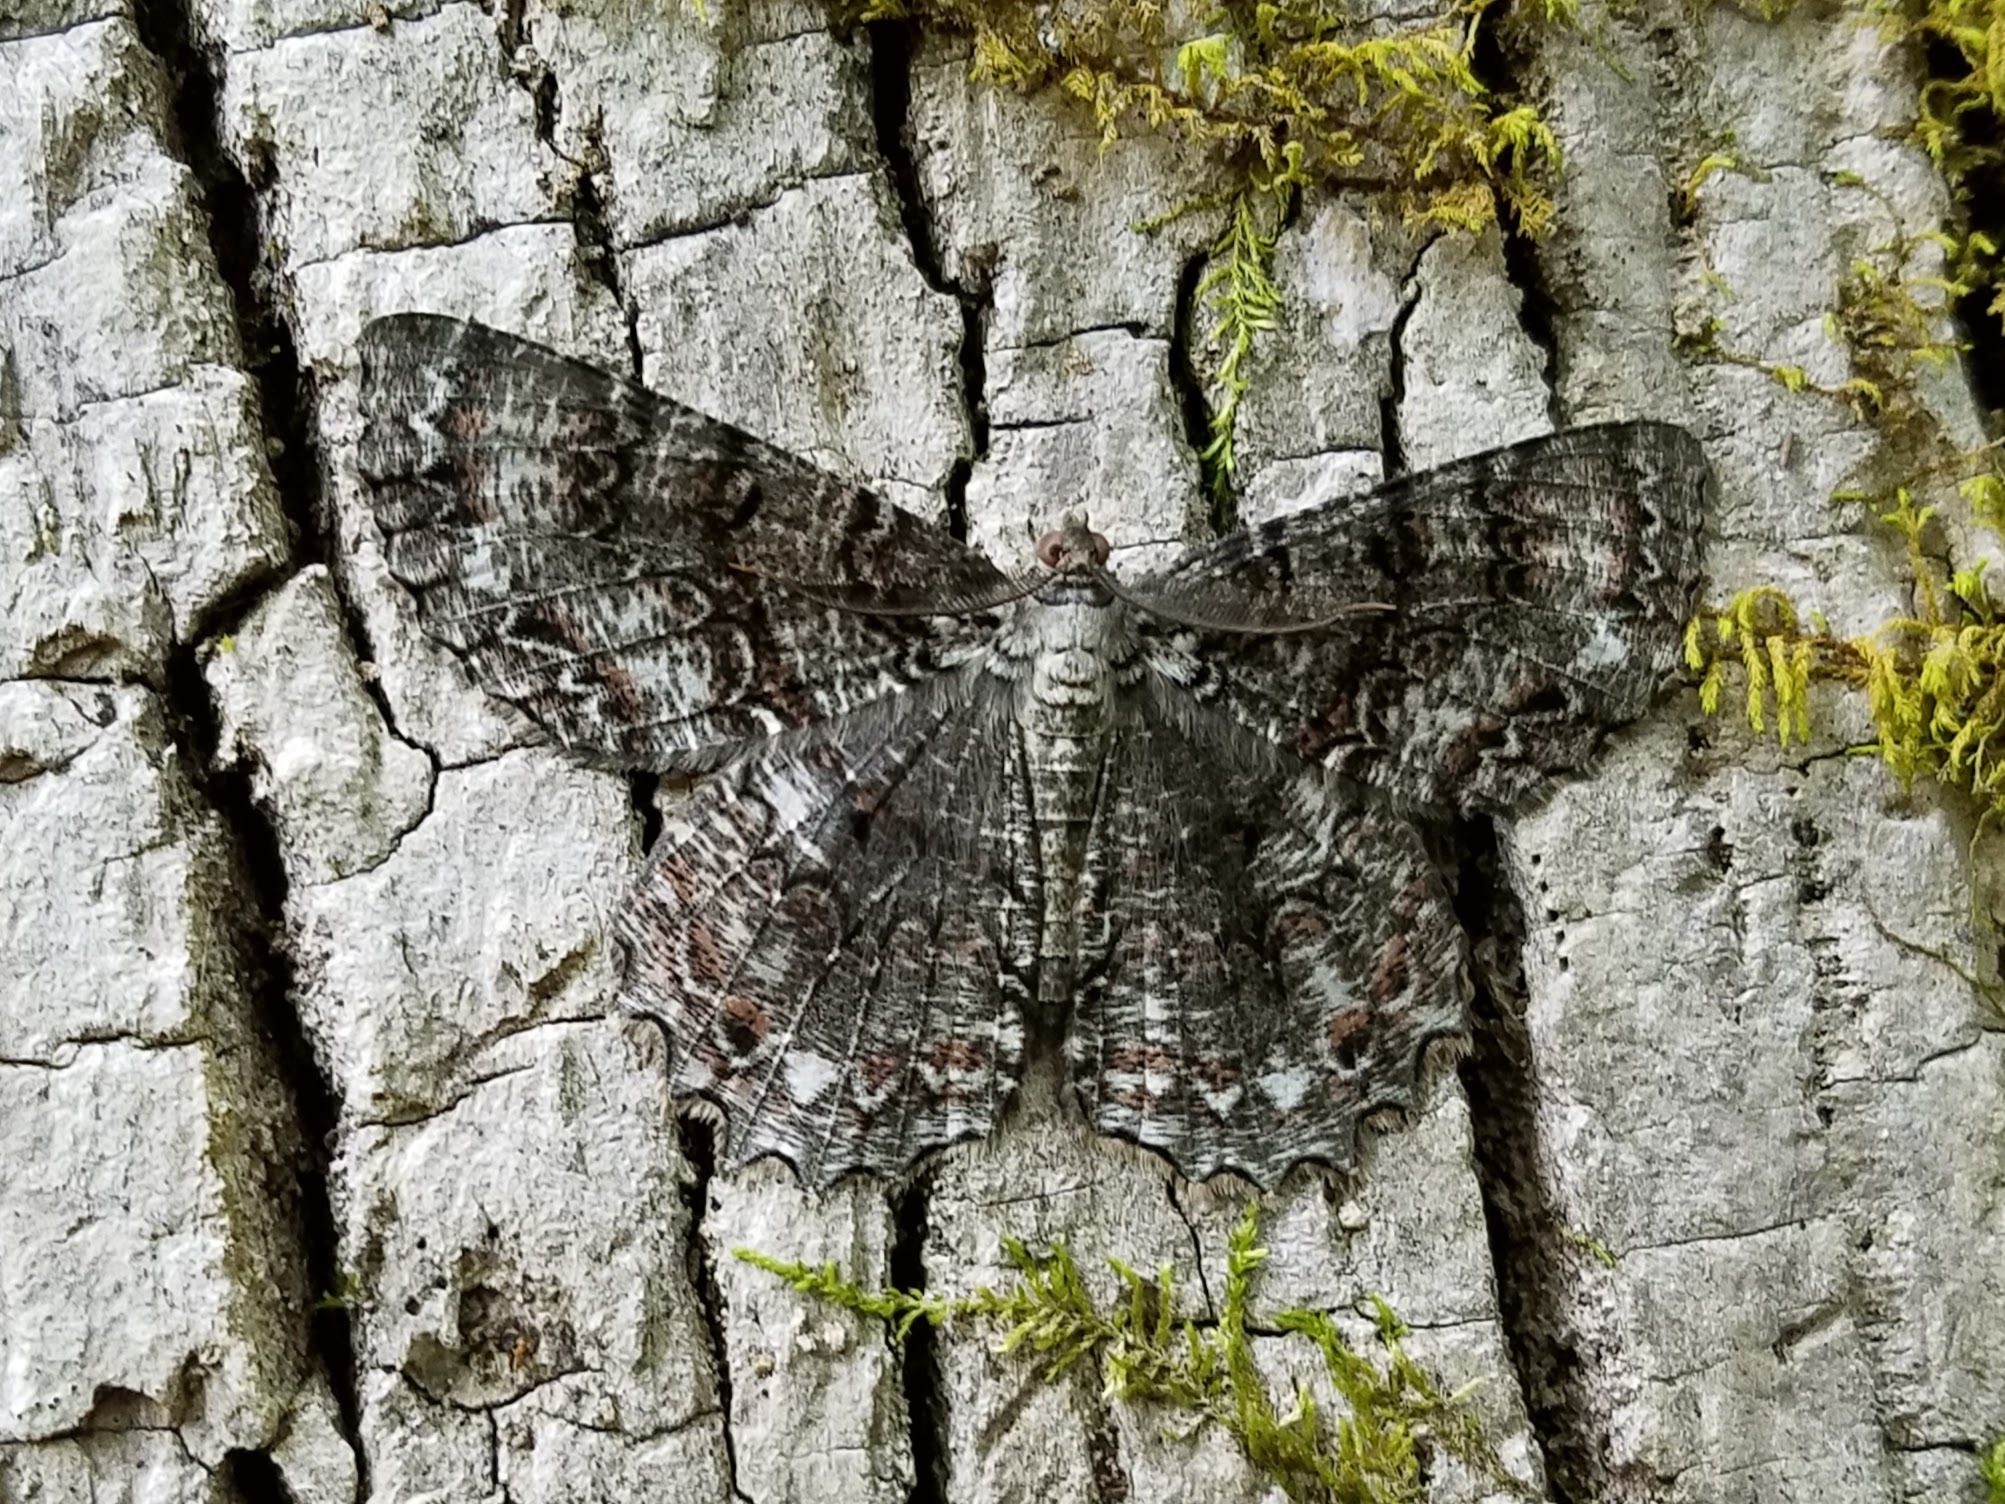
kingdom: Animalia
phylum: Arthropoda
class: Insecta
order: Lepidoptera
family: Geometridae
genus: Epimecis
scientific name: Epimecis hortaria
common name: Tulip-tree beauty
